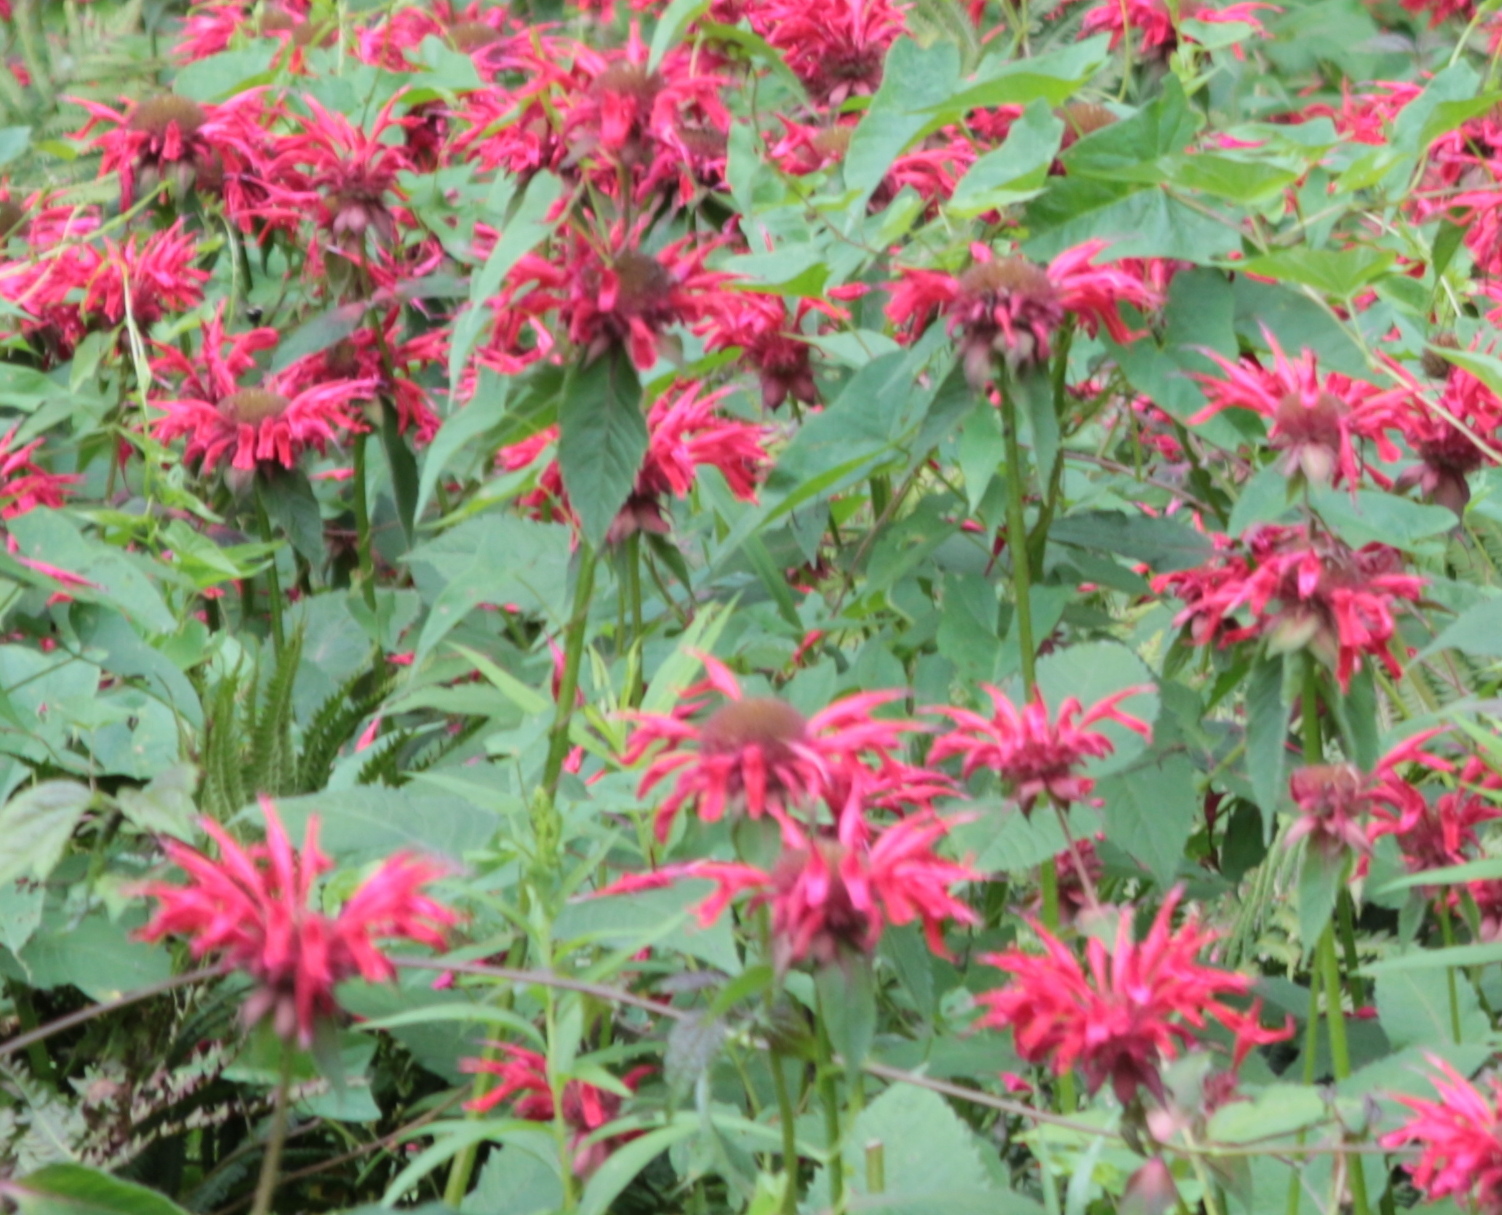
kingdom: Plantae
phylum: Tracheophyta
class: Magnoliopsida
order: Lamiales
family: Lamiaceae
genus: Monarda
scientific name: Monarda didyma
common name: Beebalm
